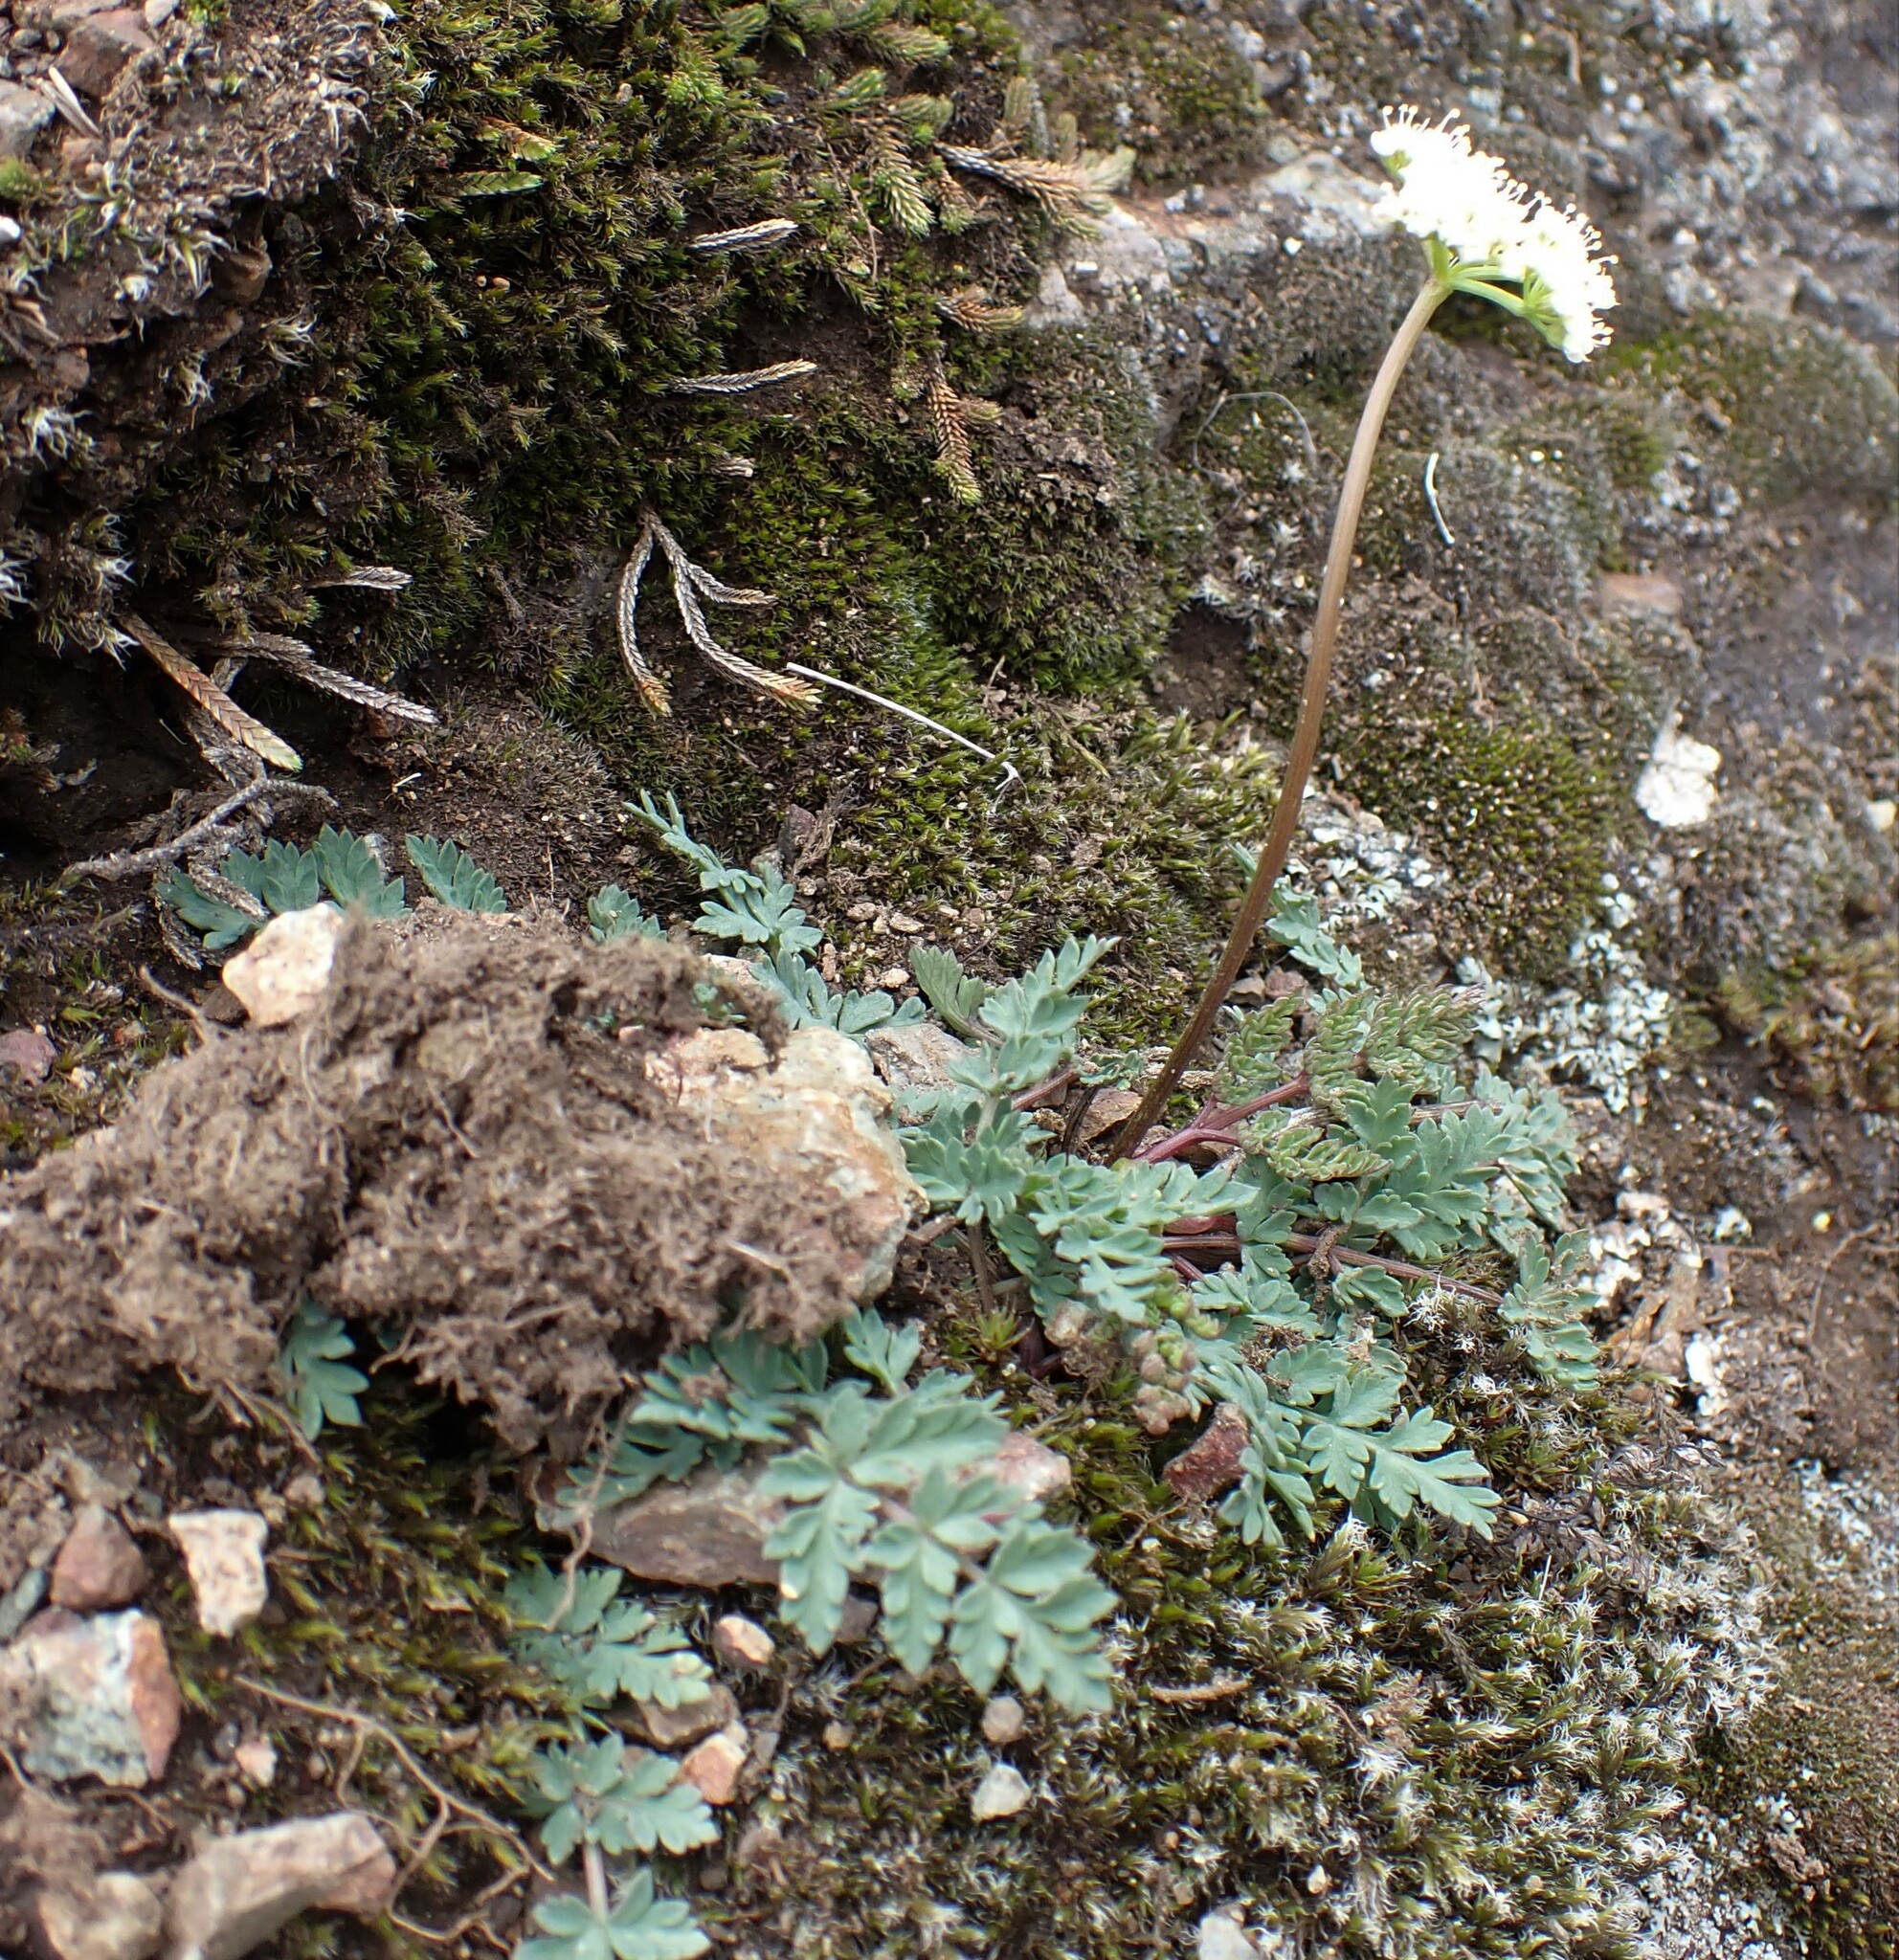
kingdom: Plantae
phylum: Tracheophyta
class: Magnoliopsida
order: Apiales
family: Apiaceae
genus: Lomatium
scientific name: Lomatium martindalei
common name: Cascade desert-parsley
